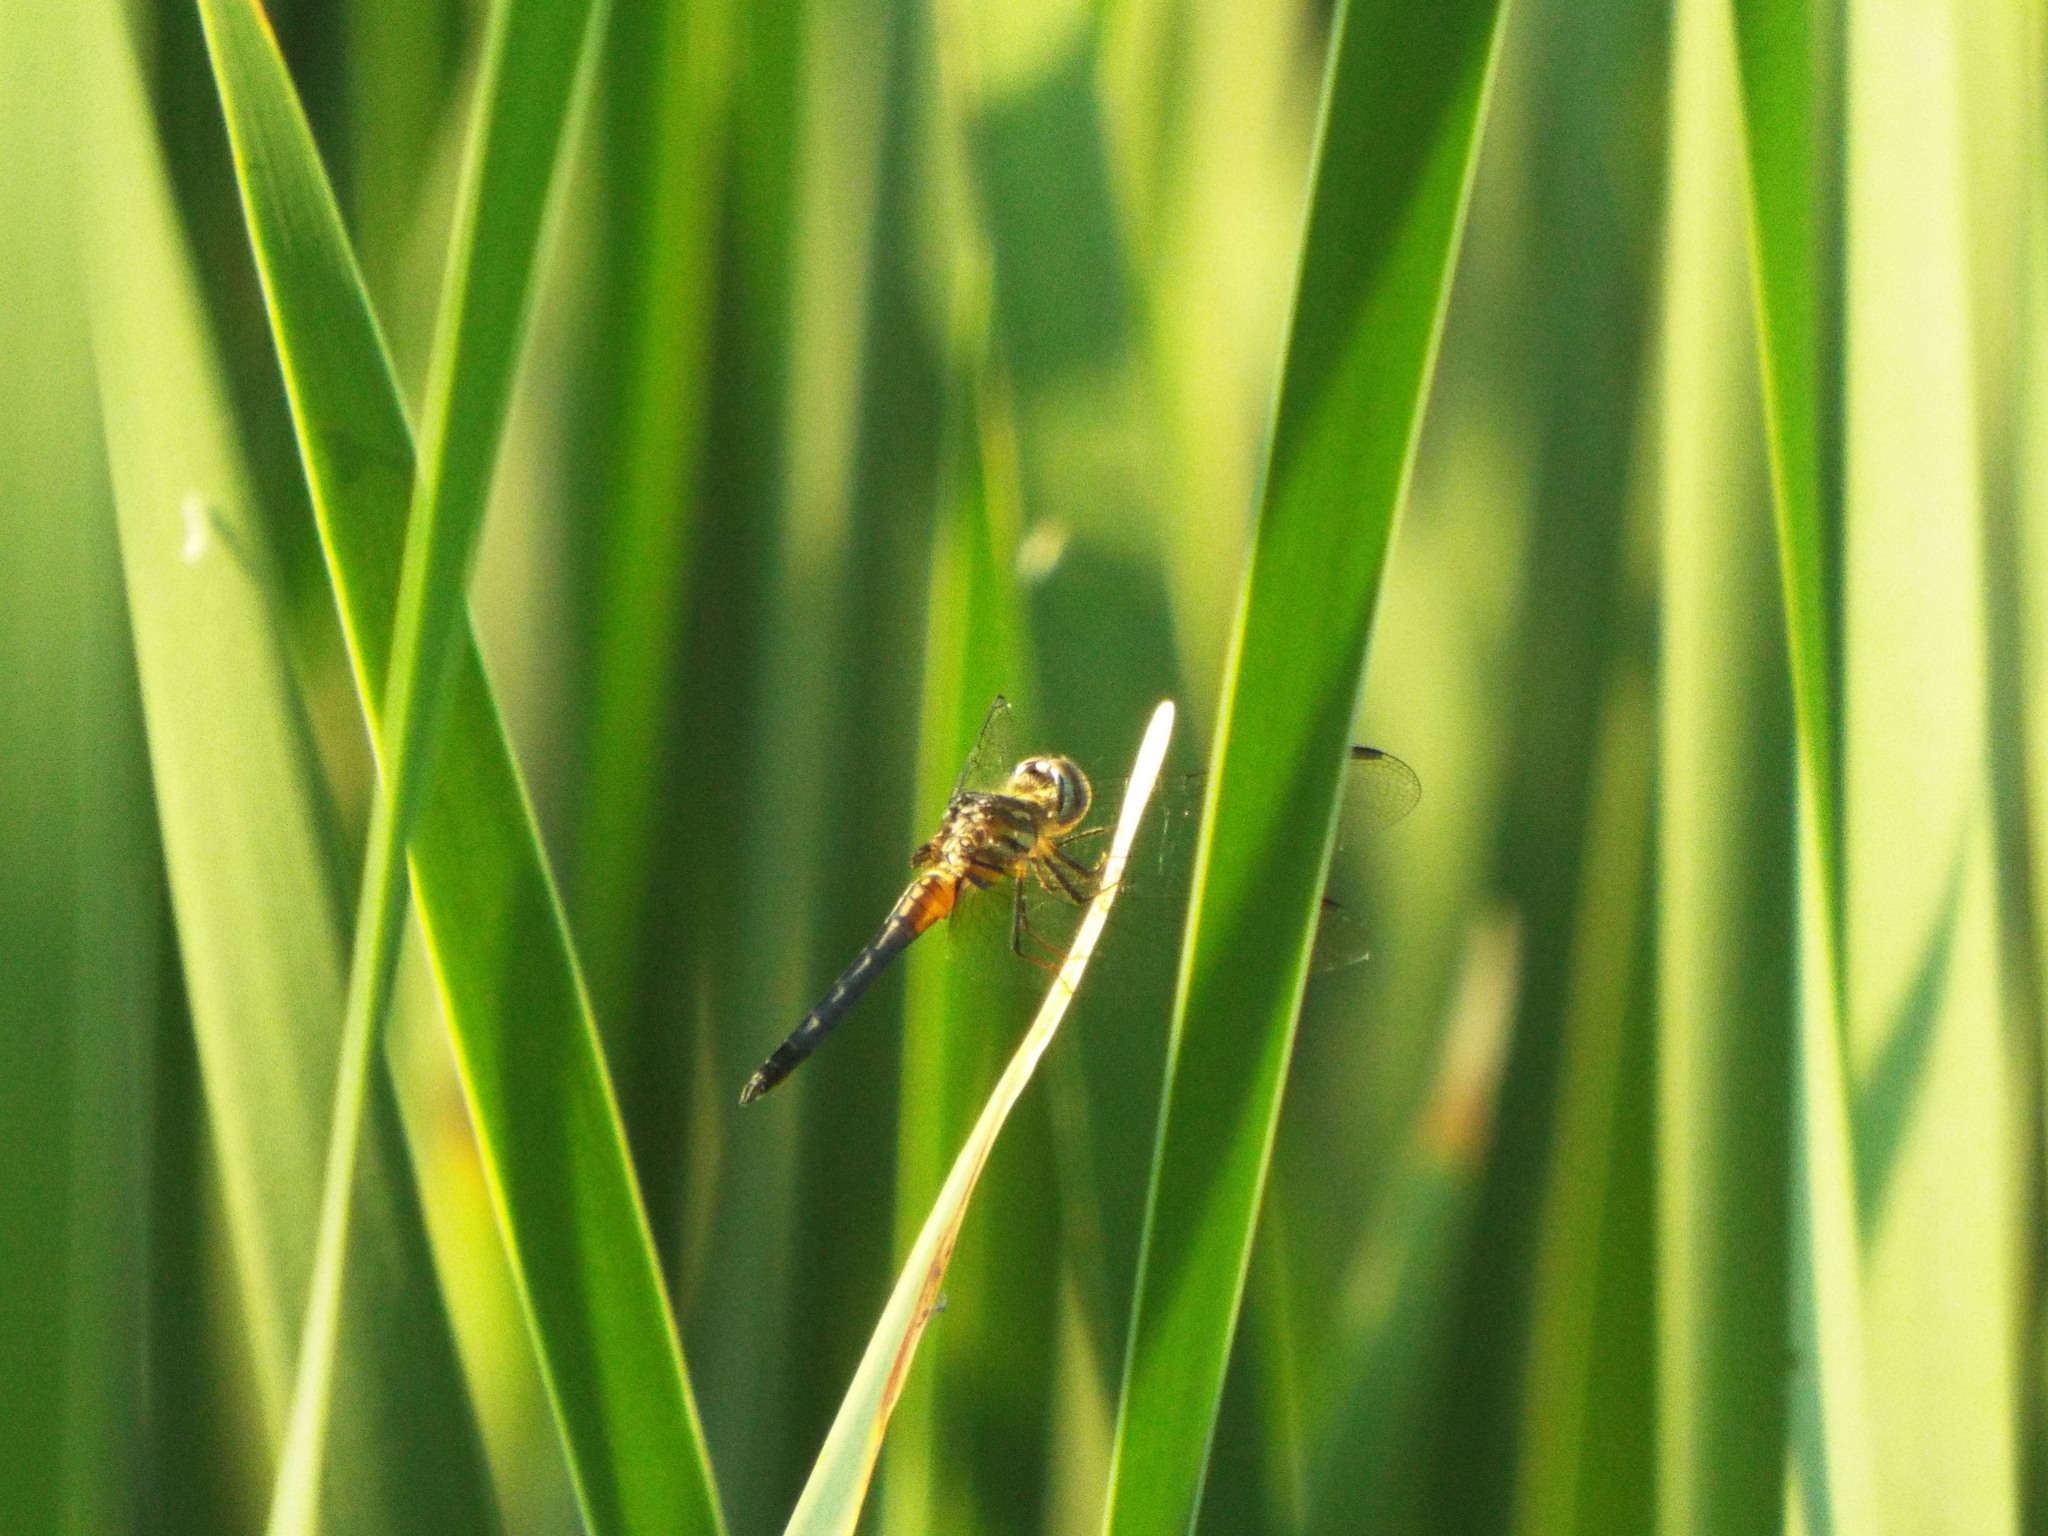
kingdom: Animalia
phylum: Arthropoda
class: Insecta
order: Odonata
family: Libellulidae
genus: Pachydiplax
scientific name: Pachydiplax longipennis
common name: Blue dasher
